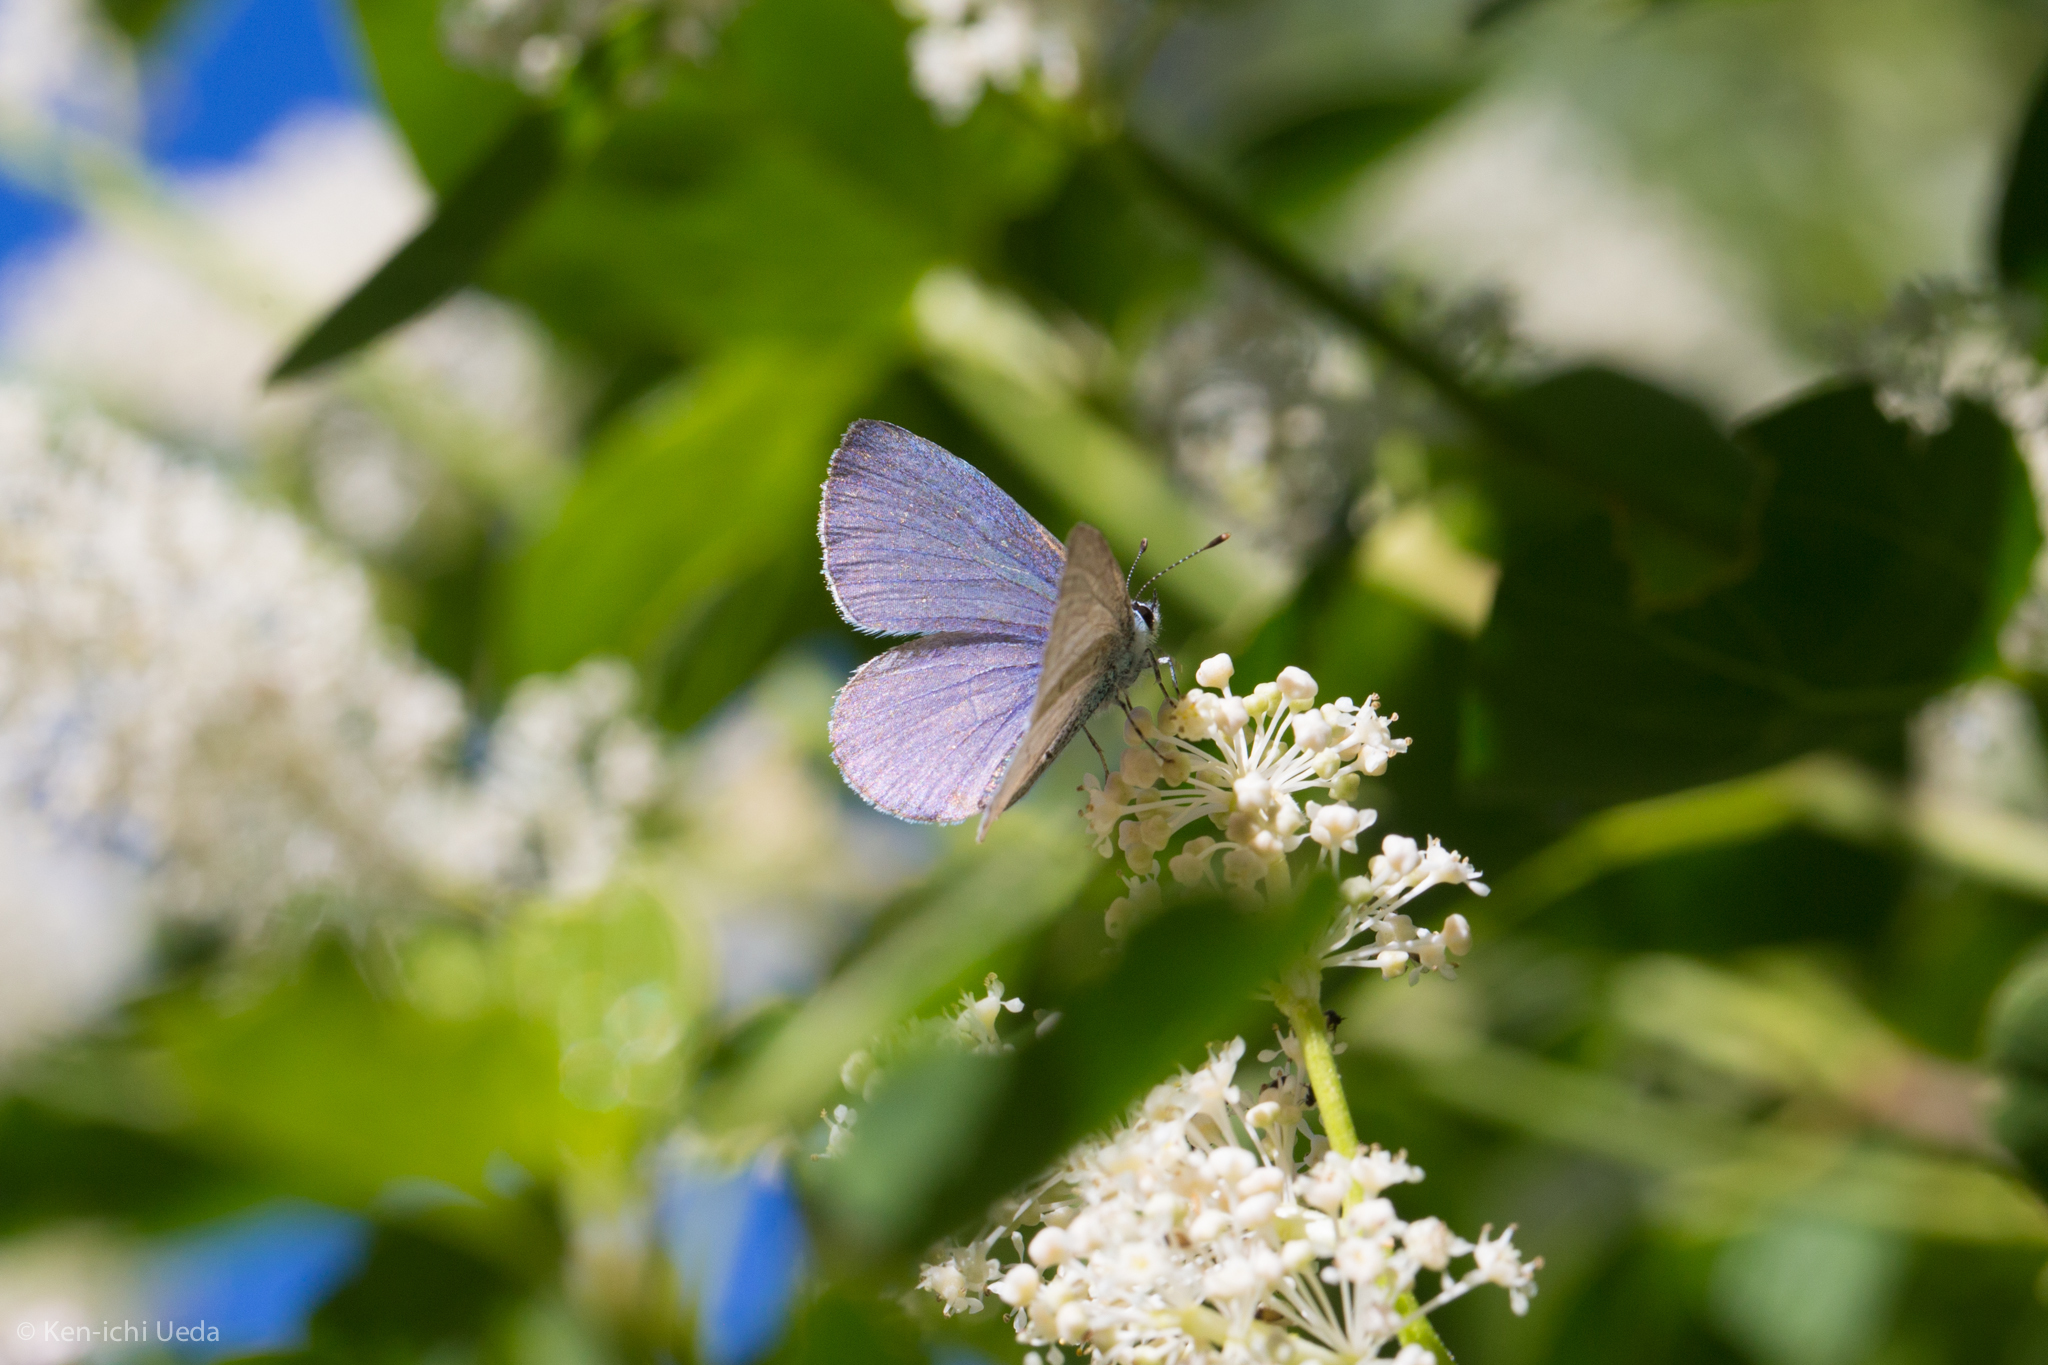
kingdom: Animalia
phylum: Arthropoda
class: Insecta
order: Lepidoptera
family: Lycaenidae
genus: Celastrina
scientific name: Celastrina ladon
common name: Spring azure
